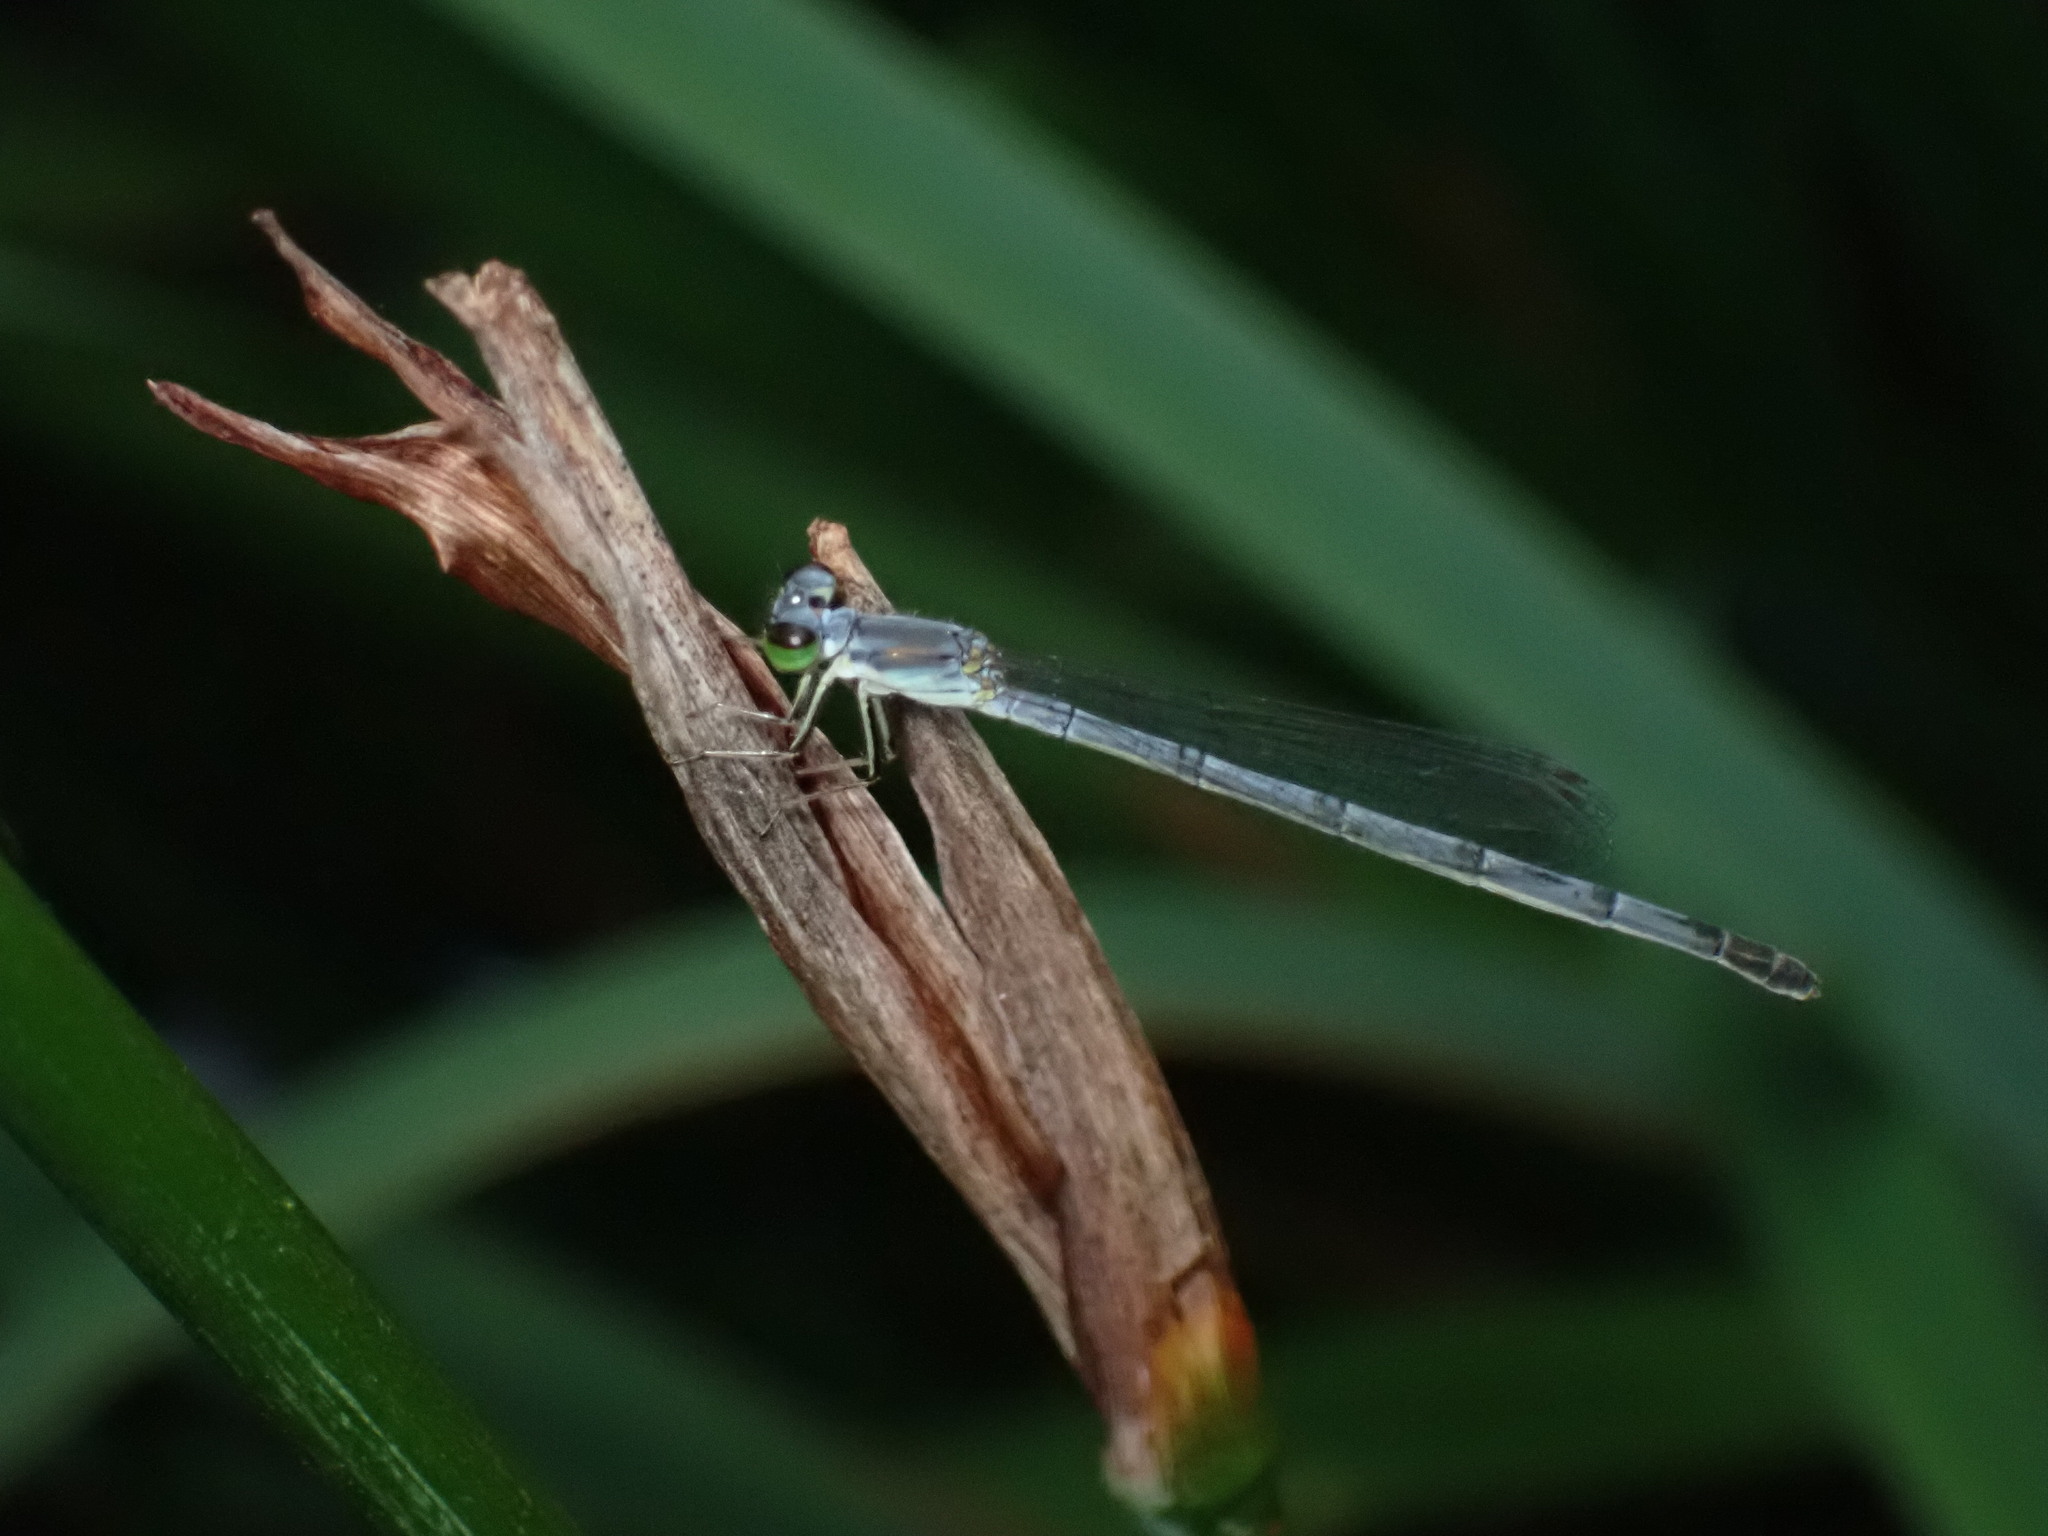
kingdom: Animalia
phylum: Arthropoda
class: Insecta
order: Odonata
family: Coenagrionidae
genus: Ischnura
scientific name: Ischnura posita
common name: Fragile forktail
